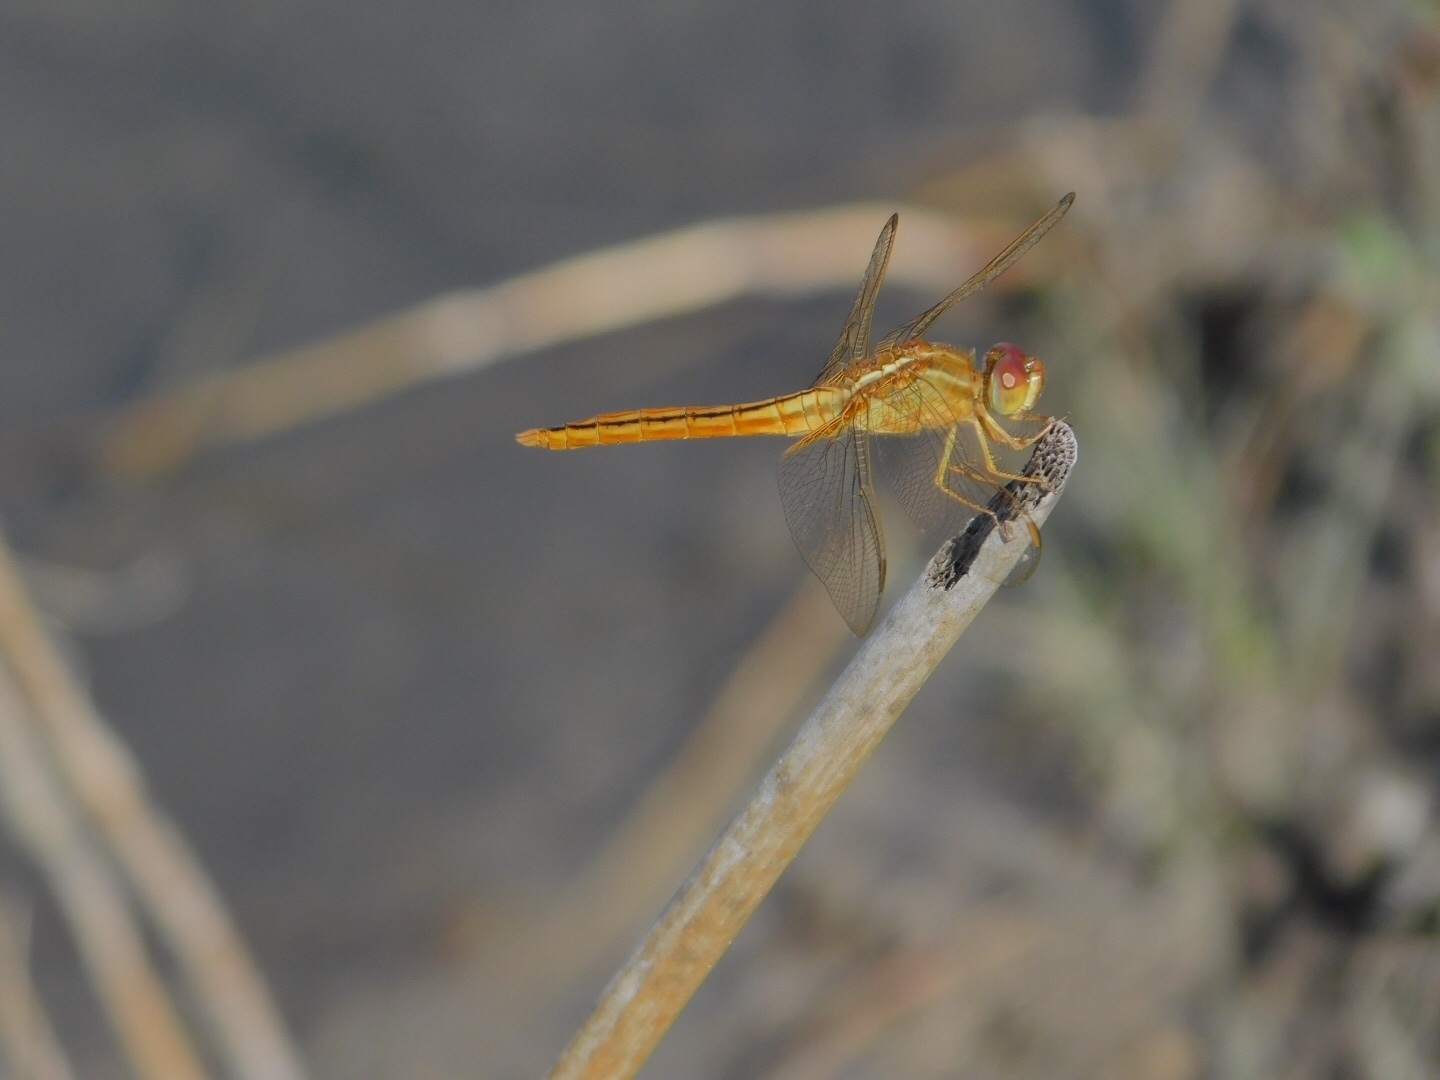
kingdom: Animalia
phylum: Arthropoda
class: Insecta
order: Odonata
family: Libellulidae
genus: Crocothemis
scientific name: Crocothemis servilia
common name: Scarlet skimmer
